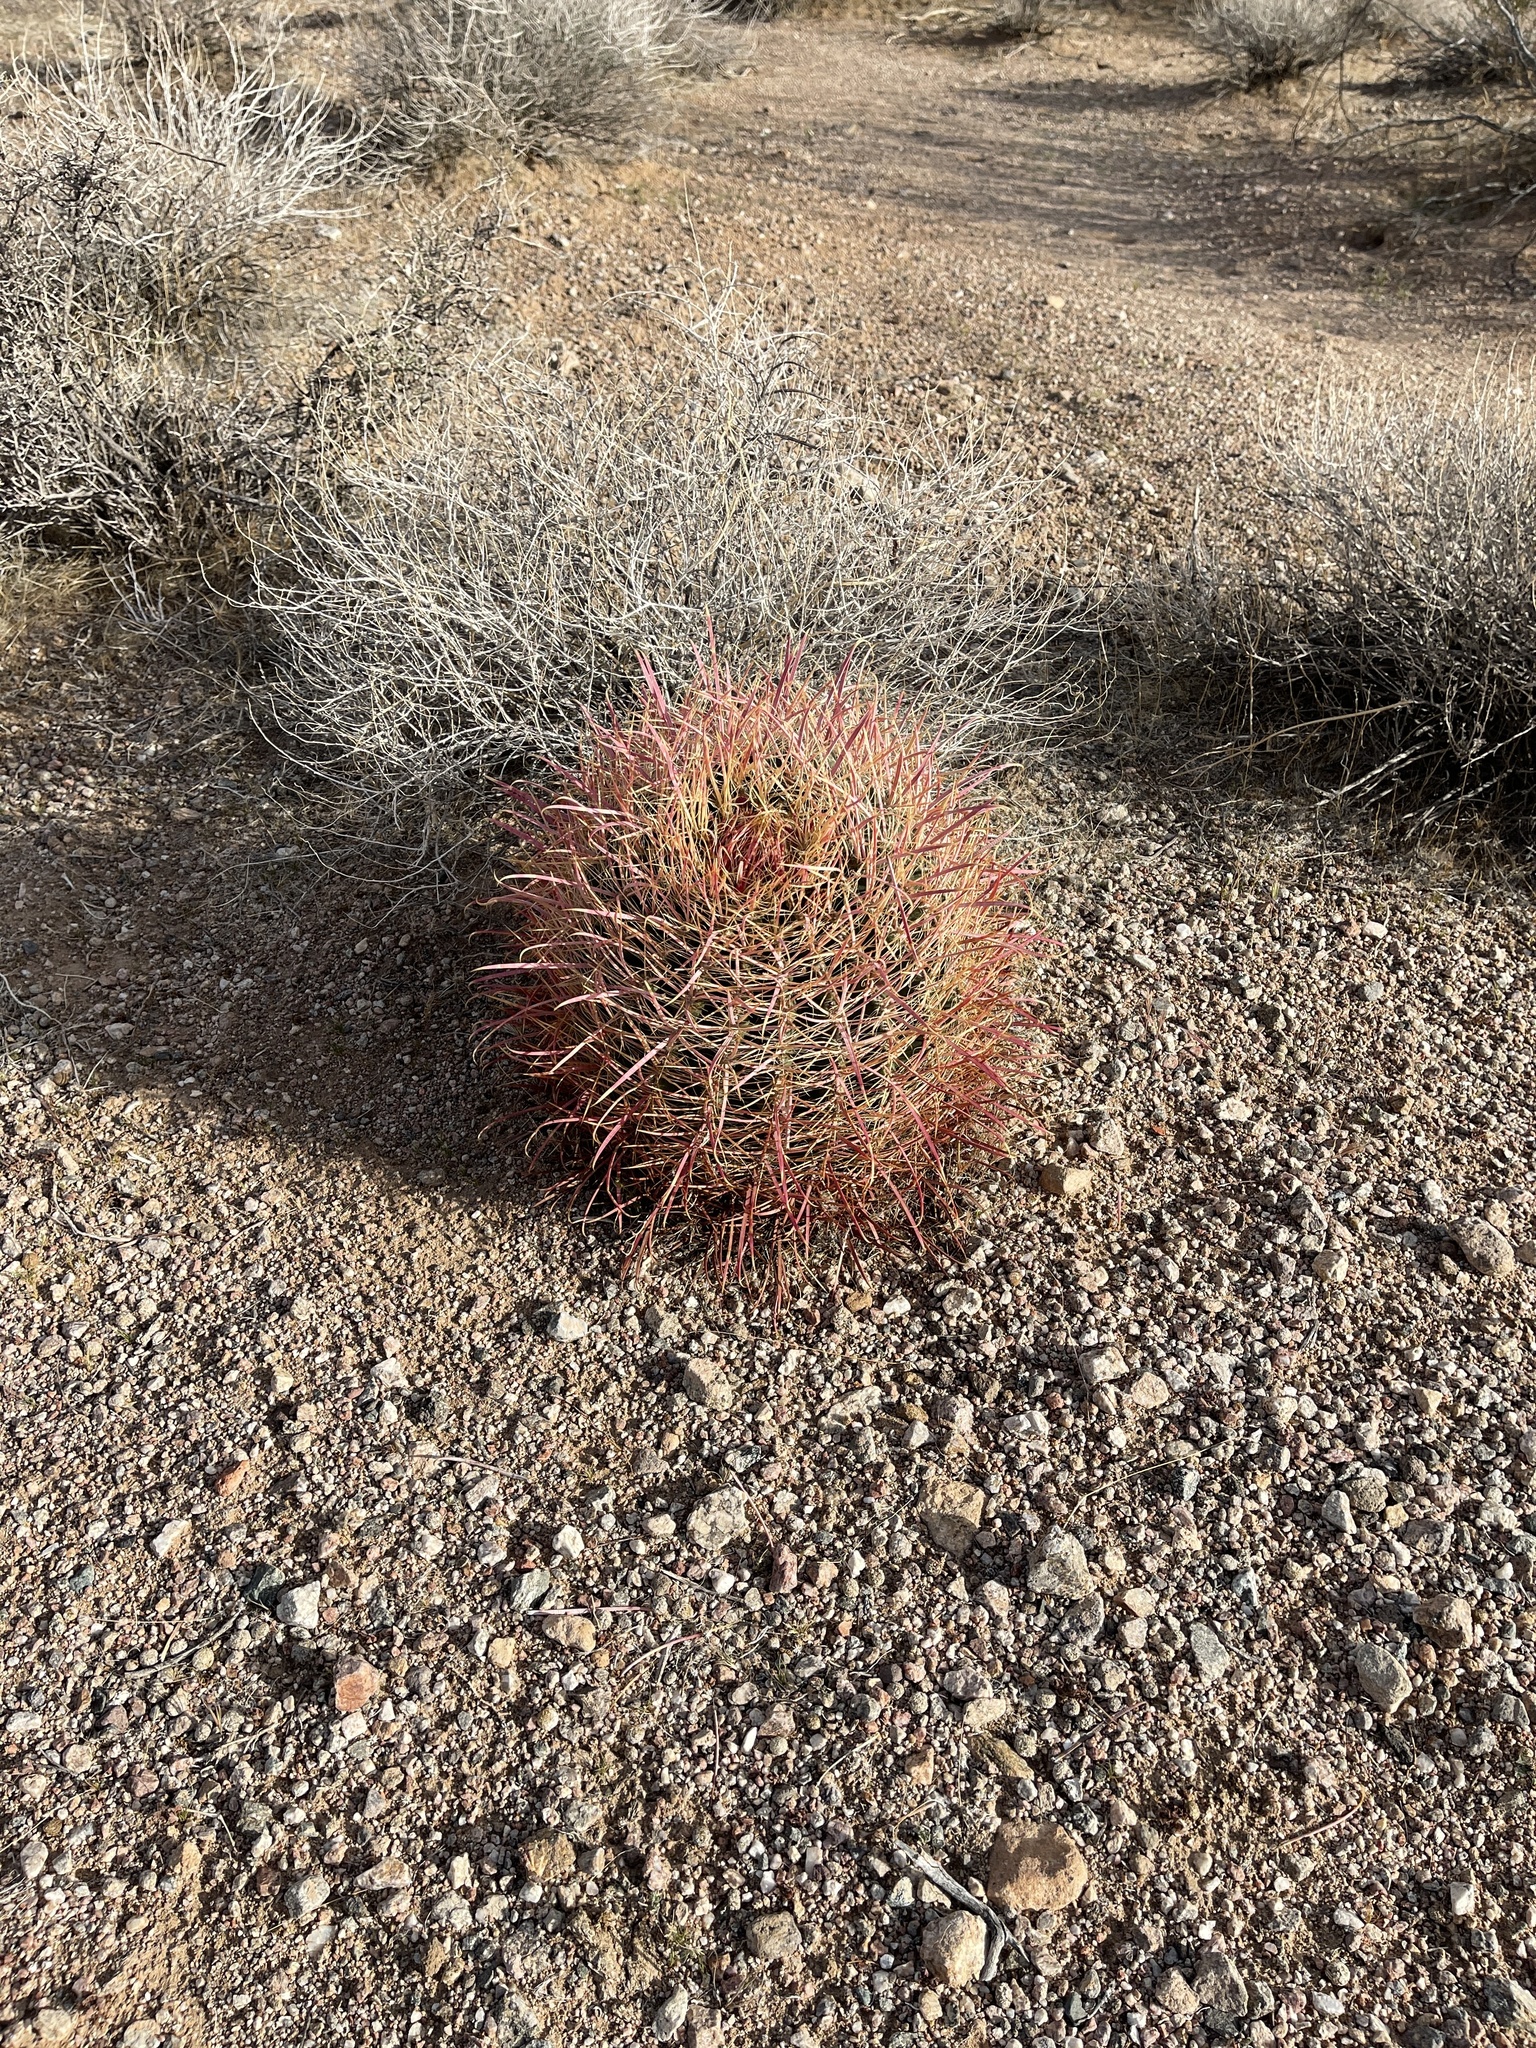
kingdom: Plantae
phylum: Tracheophyta
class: Magnoliopsida
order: Caryophyllales
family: Cactaceae
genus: Ferocactus
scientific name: Ferocactus cylindraceus
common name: California barrel cactus
